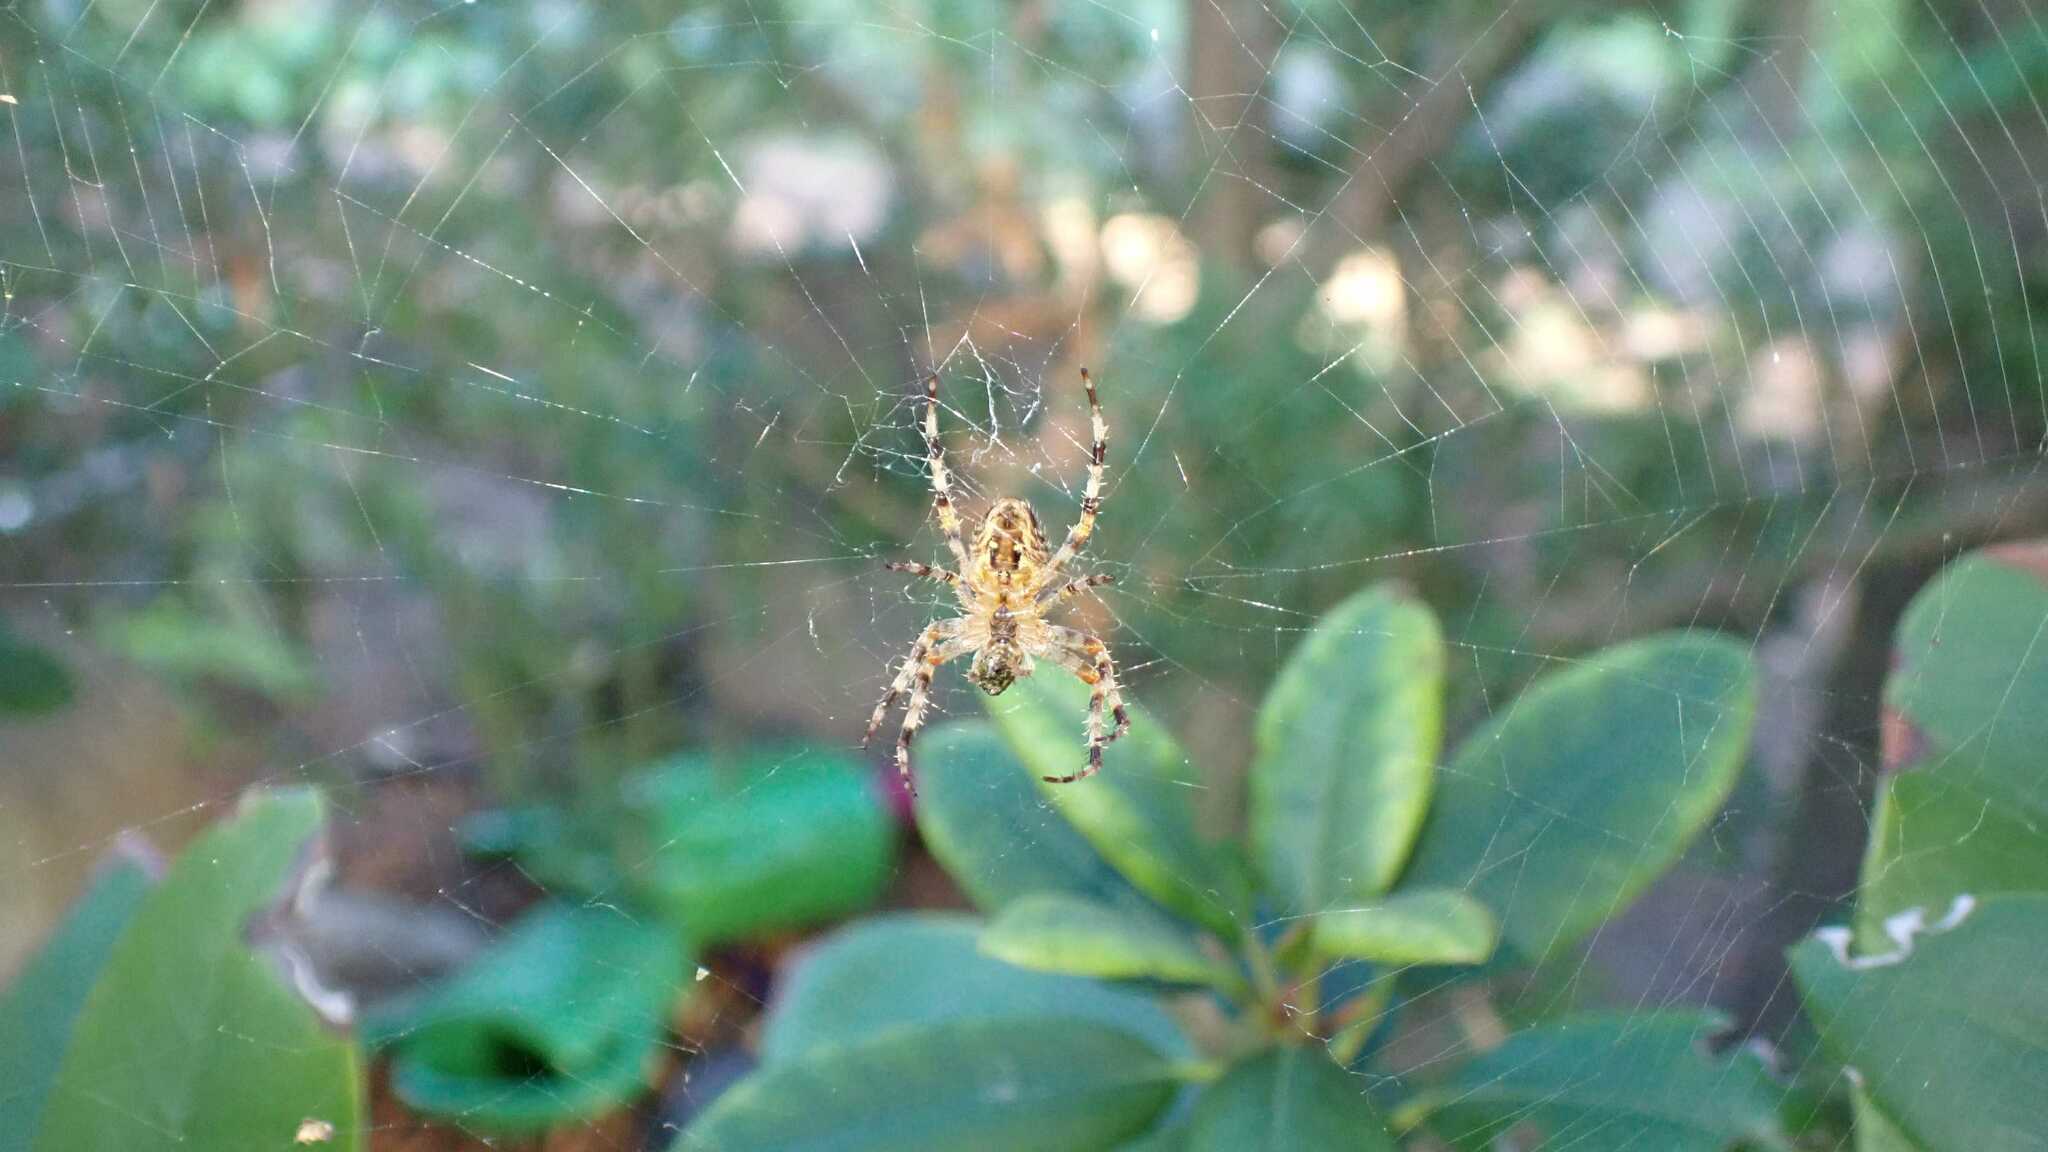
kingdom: Animalia
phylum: Arthropoda
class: Arachnida
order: Araneae
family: Araneidae
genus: Araneus
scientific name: Araneus diadematus
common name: Cross orbweaver
